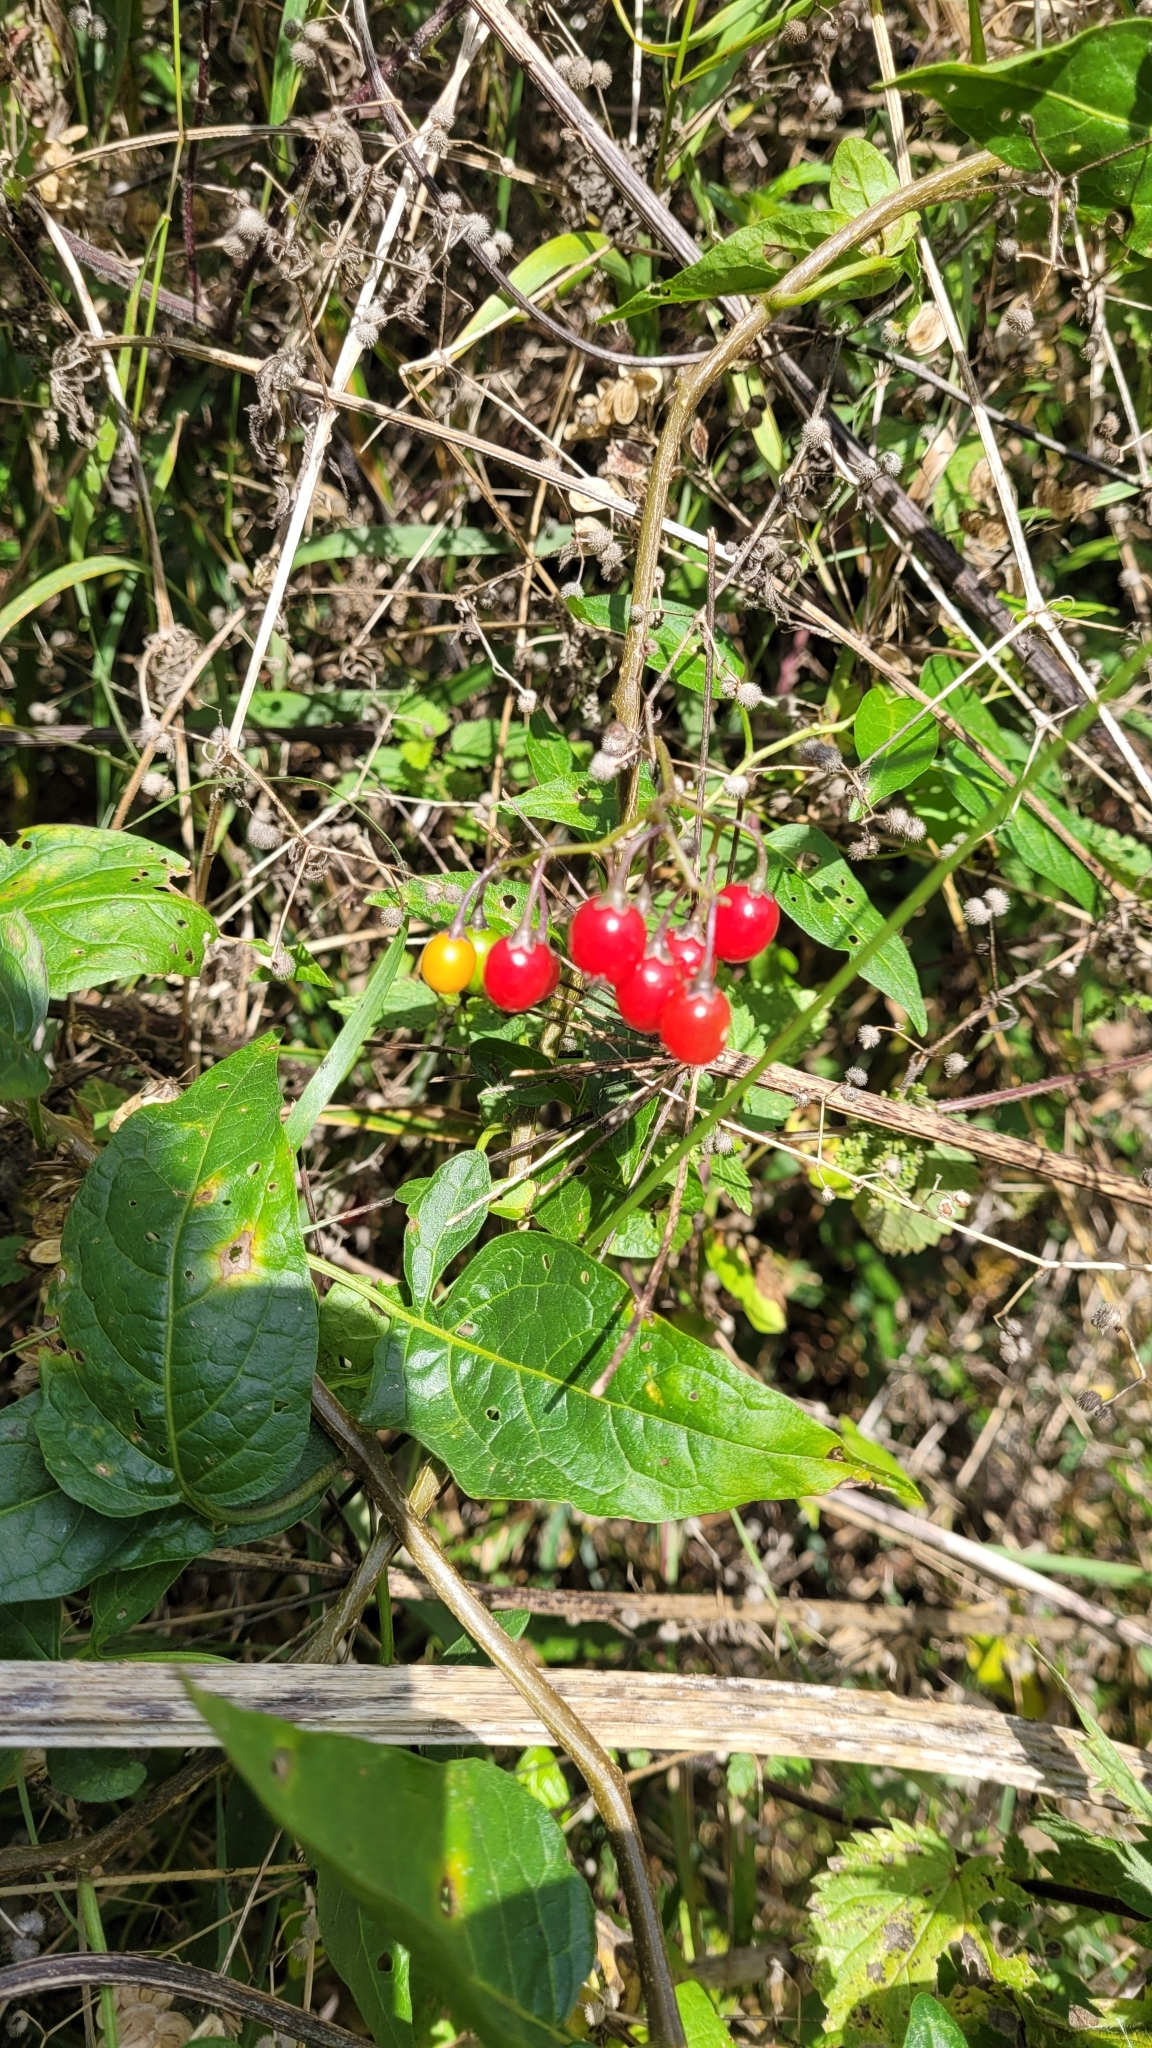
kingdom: Plantae
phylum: Tracheophyta
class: Magnoliopsida
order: Solanales
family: Solanaceae
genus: Solanum
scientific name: Solanum dulcamara
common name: Climbing nightshade
